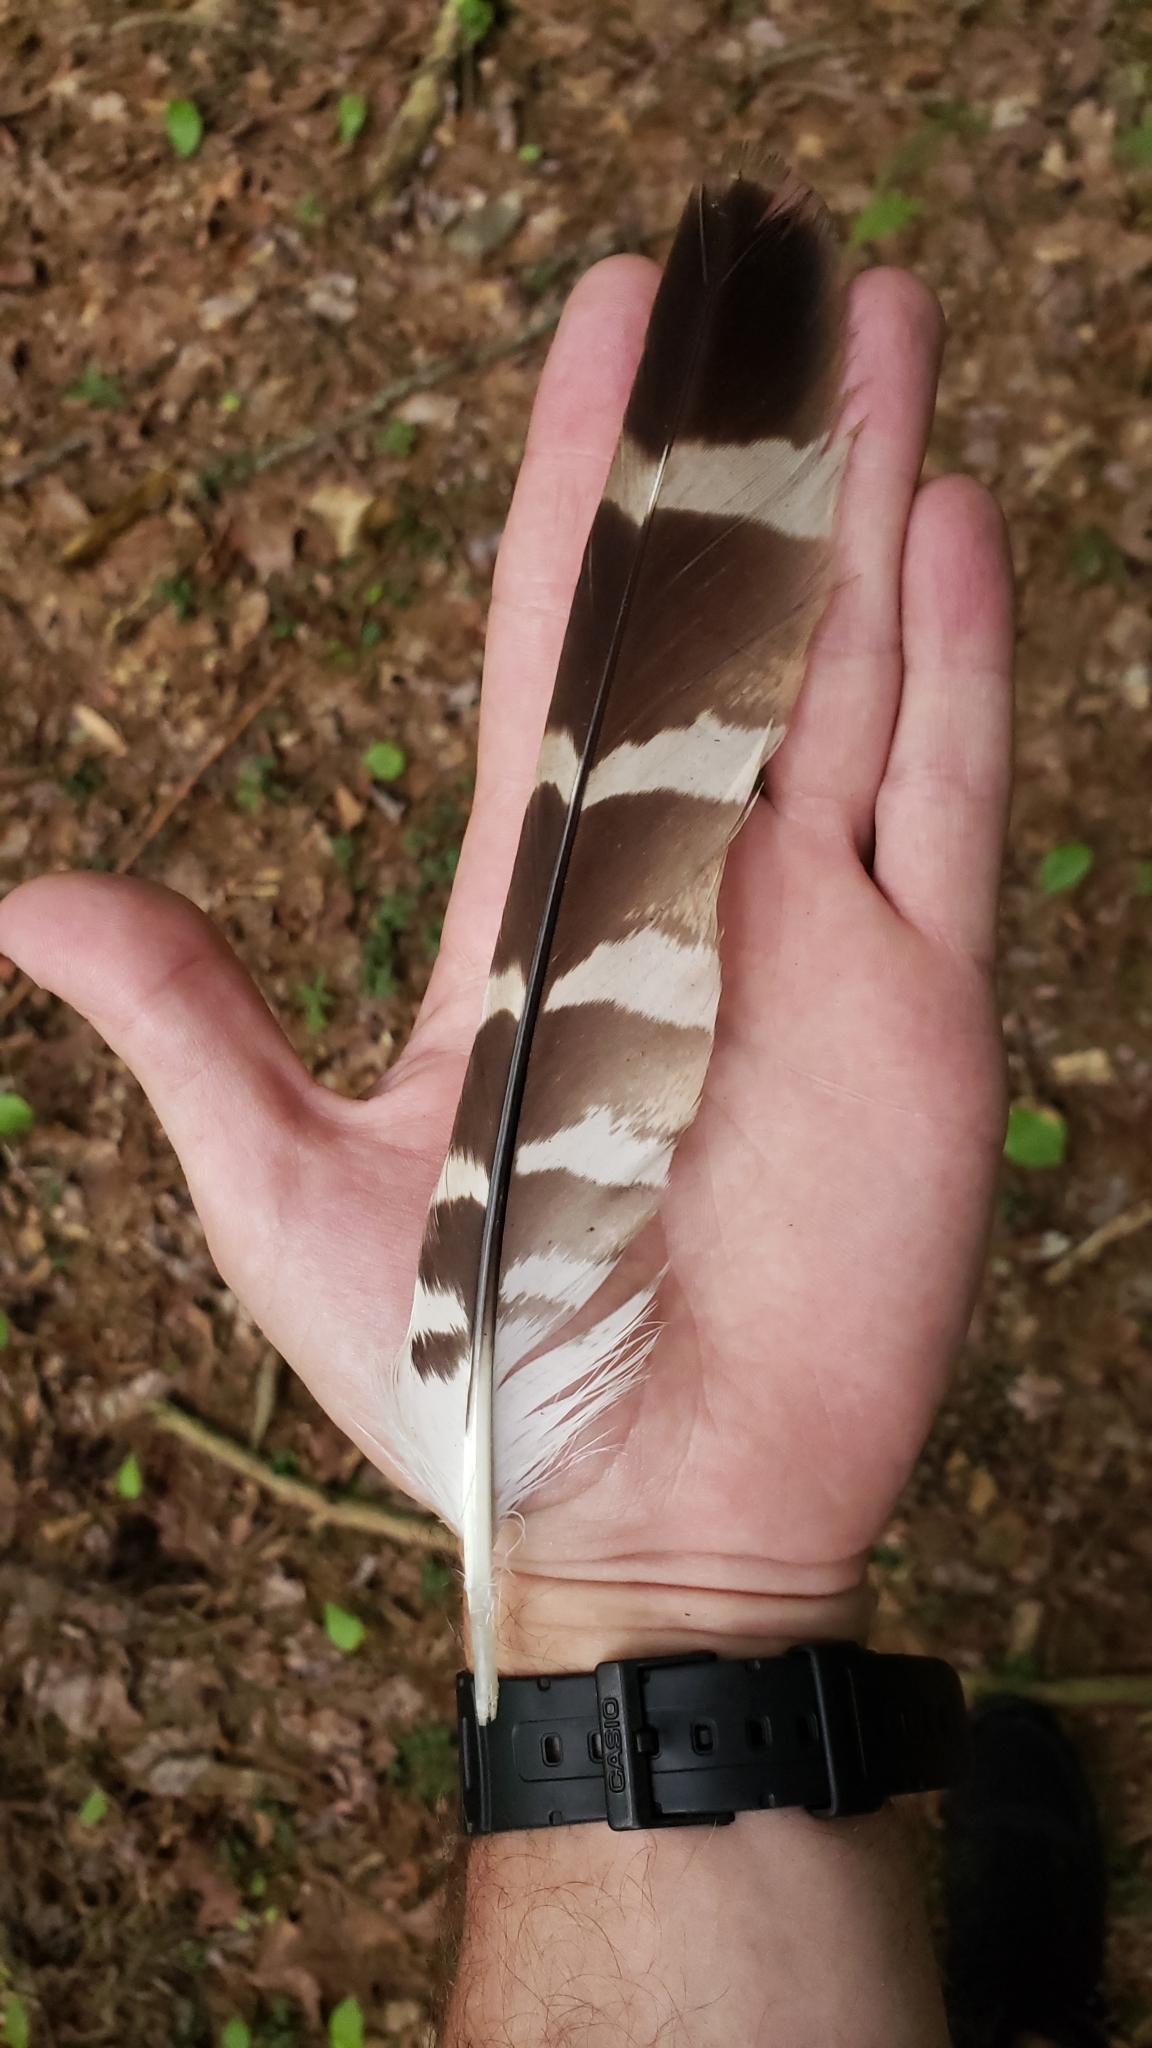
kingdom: Animalia
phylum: Chordata
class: Aves
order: Accipitriformes
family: Accipitridae
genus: Buteo
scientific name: Buteo lineatus
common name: Red-shouldered hawk
